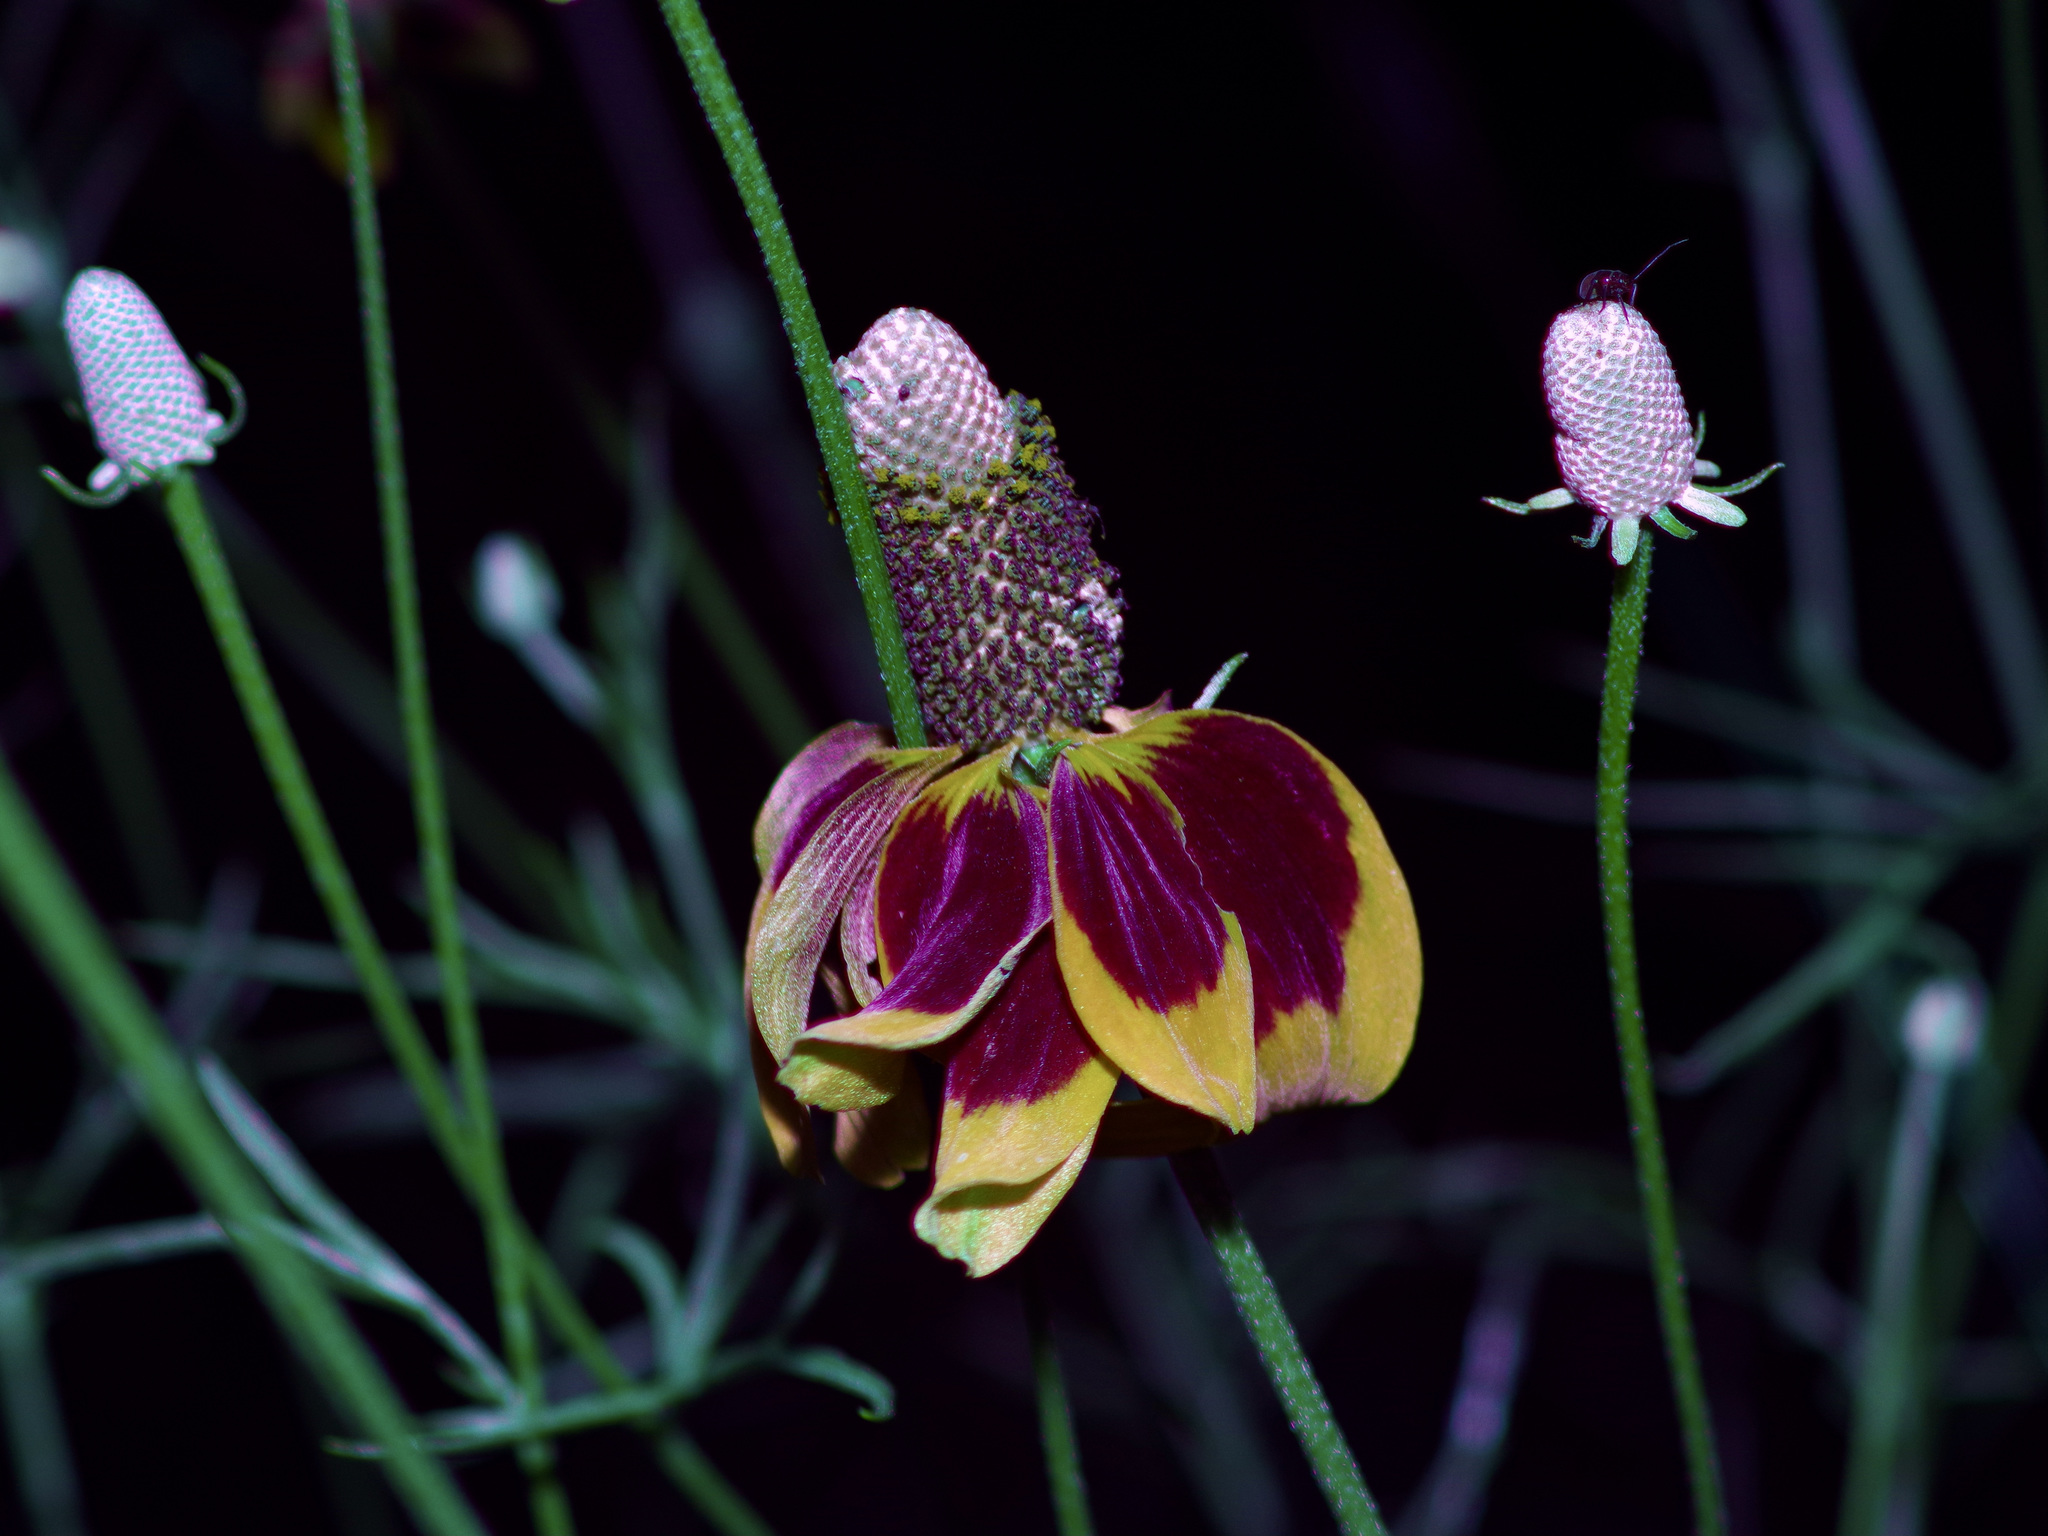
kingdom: Plantae
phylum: Tracheophyta
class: Magnoliopsida
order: Asterales
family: Asteraceae
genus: Ratibida
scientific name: Ratibida columnifera
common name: Prairie coneflower
